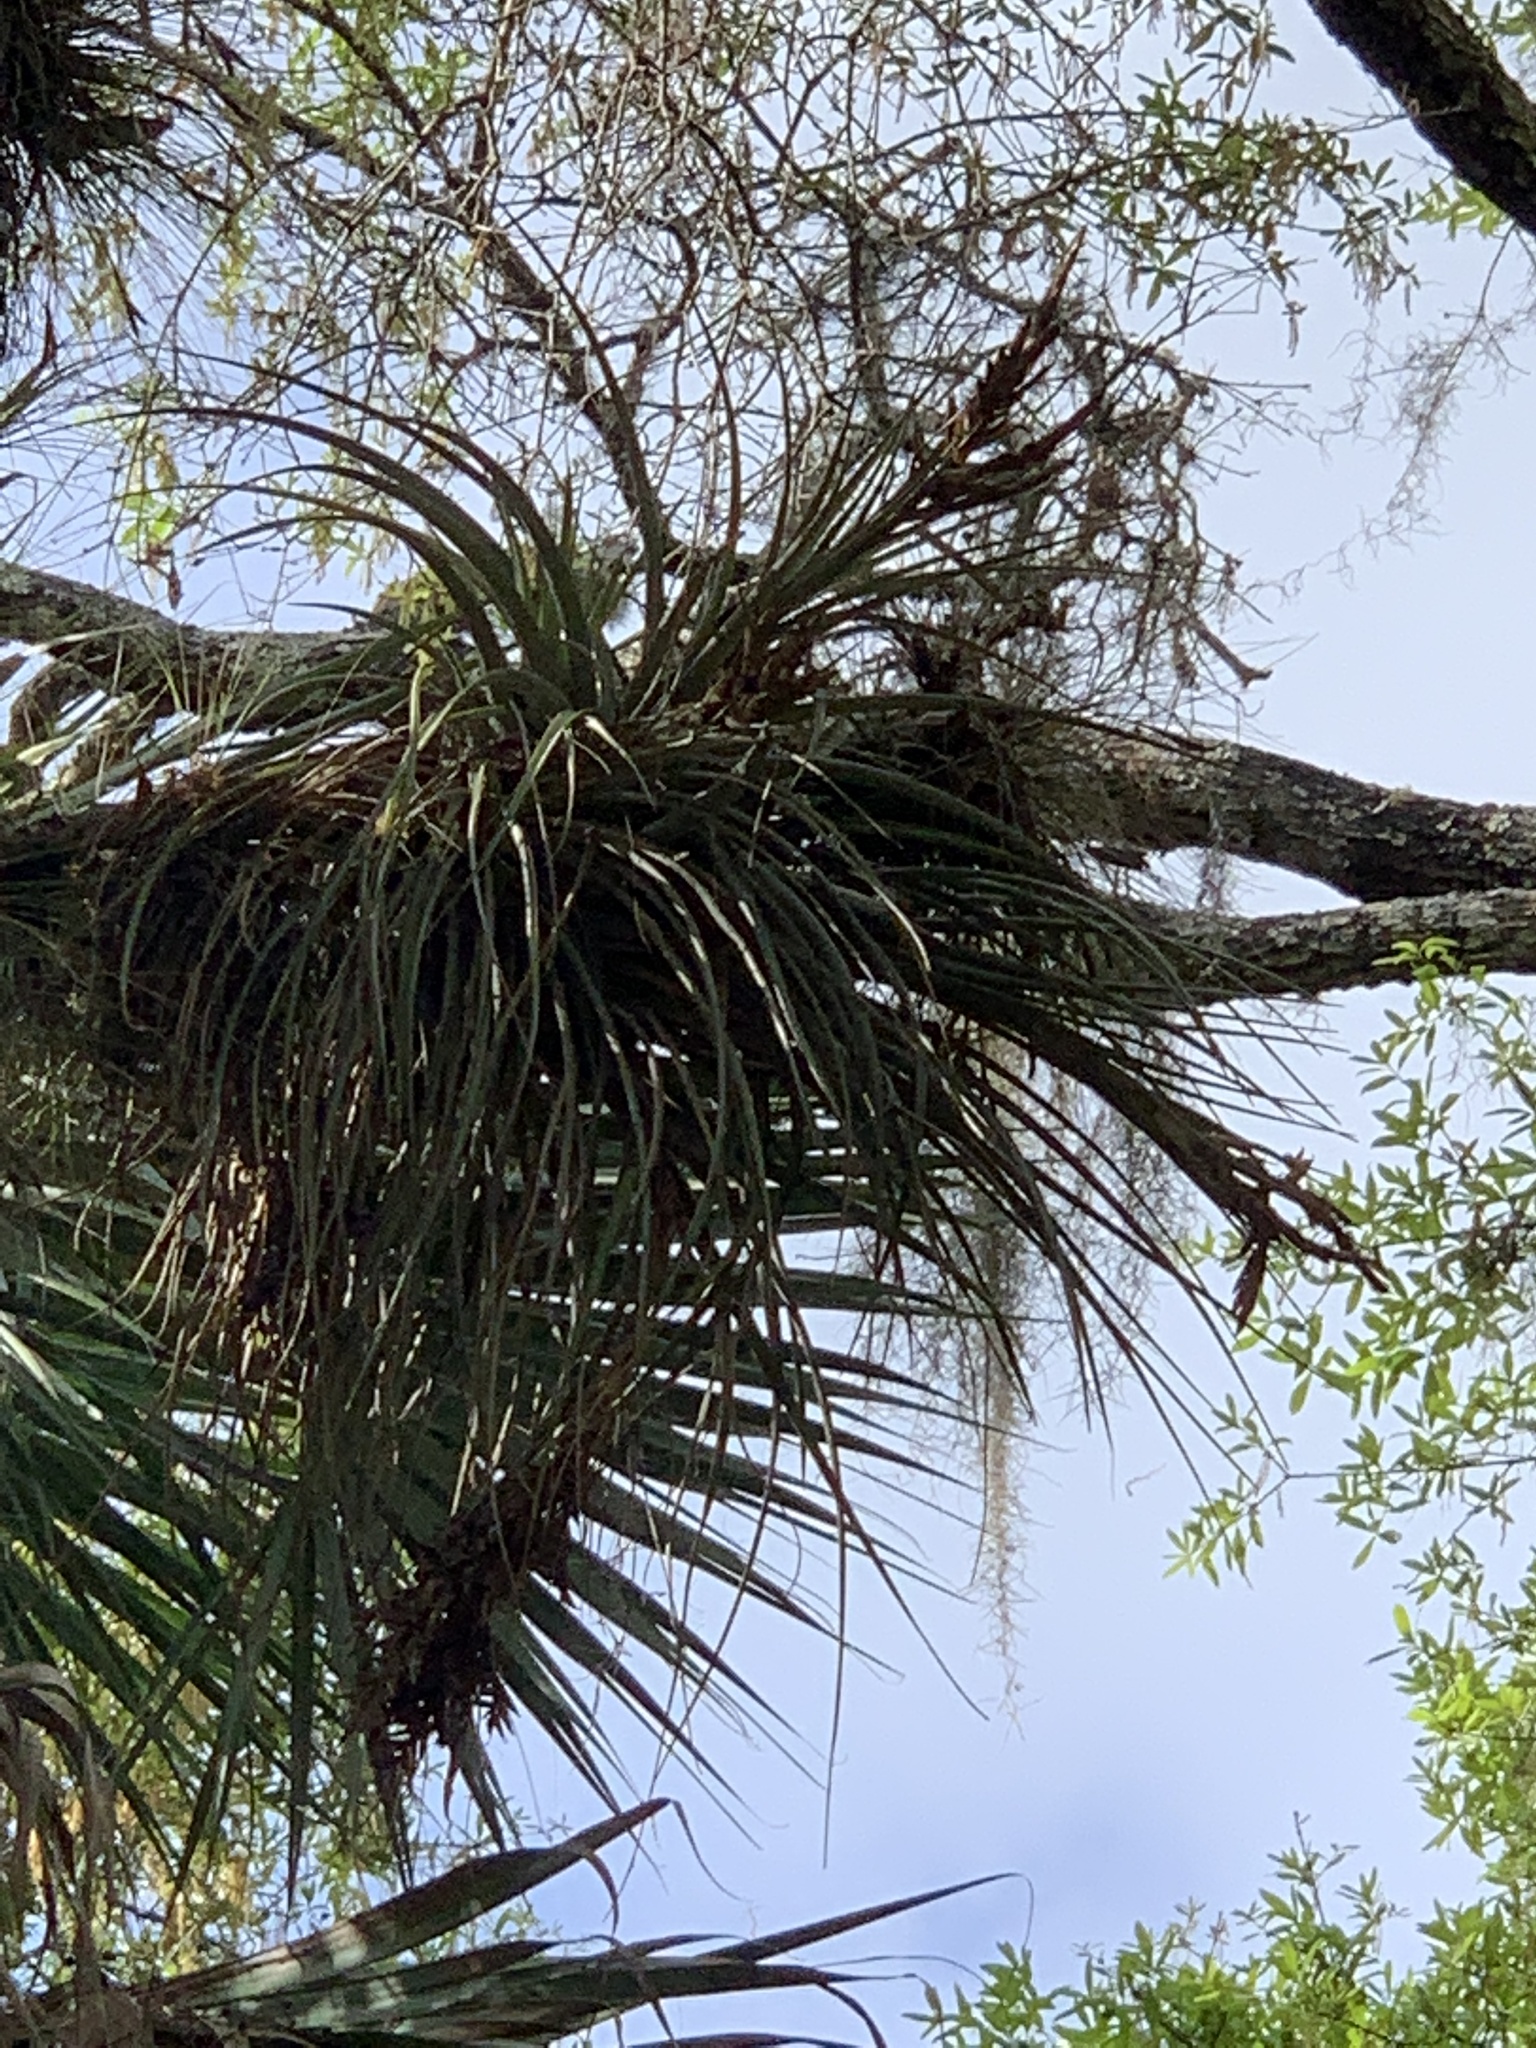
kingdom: Plantae
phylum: Tracheophyta
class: Liliopsida
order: Poales
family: Bromeliaceae
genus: Tillandsia
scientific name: Tillandsia fasciculata
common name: Giant airplant
